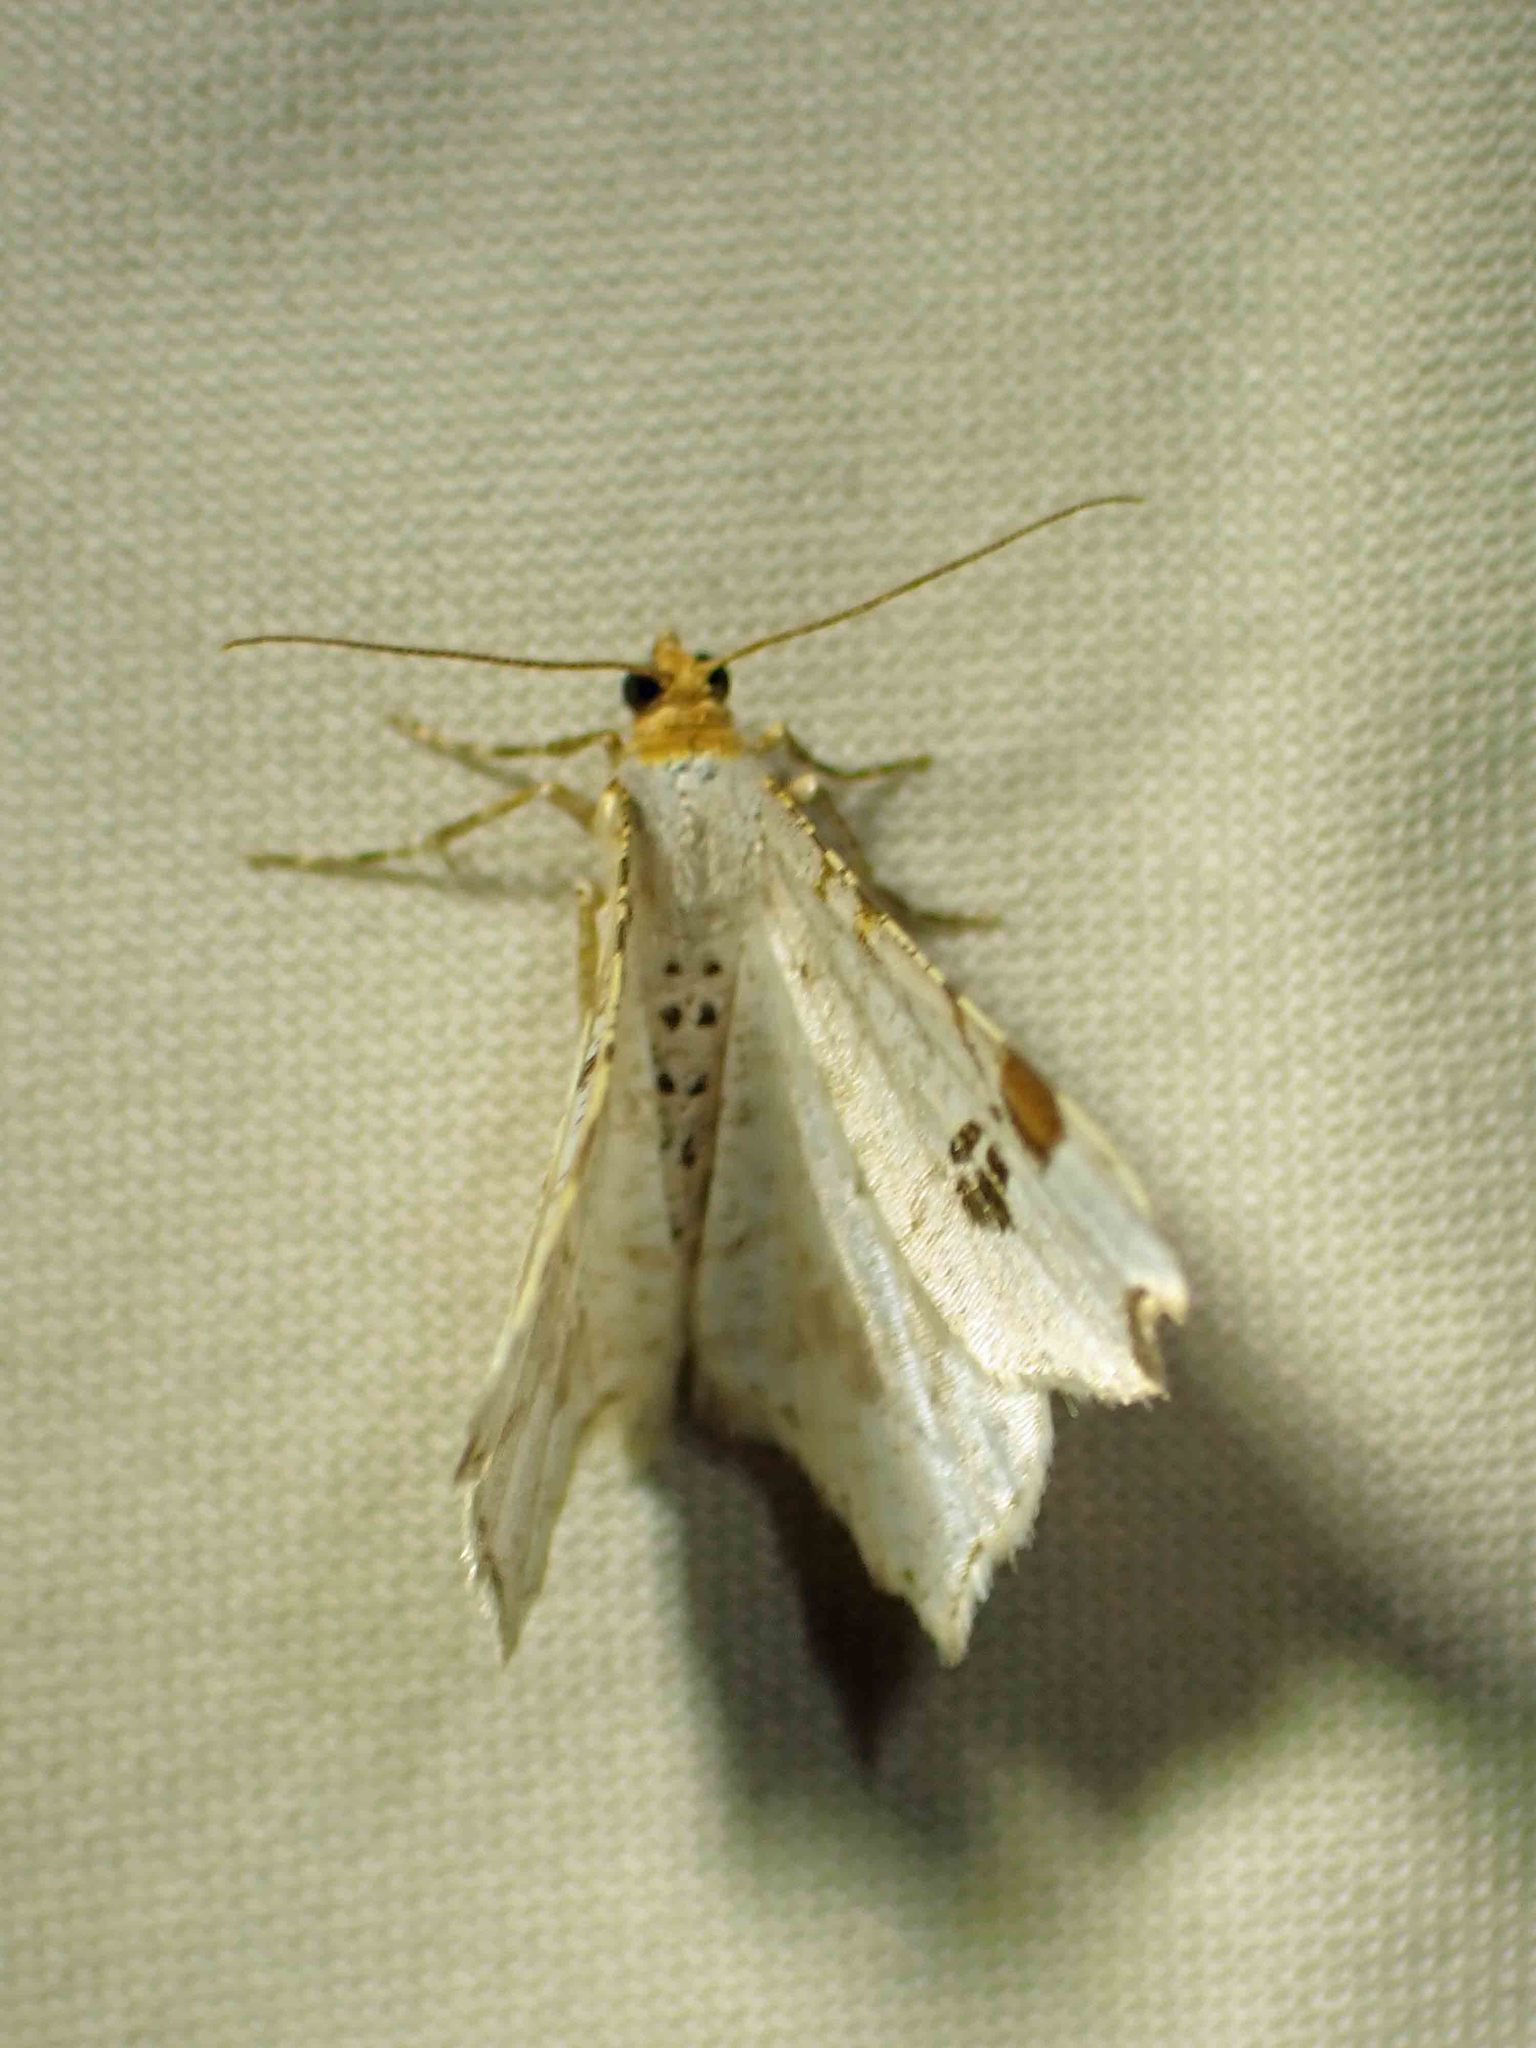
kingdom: Animalia
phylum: Arthropoda
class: Insecta
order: Lepidoptera
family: Geometridae
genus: Macaria
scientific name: Macaria ulsterata
